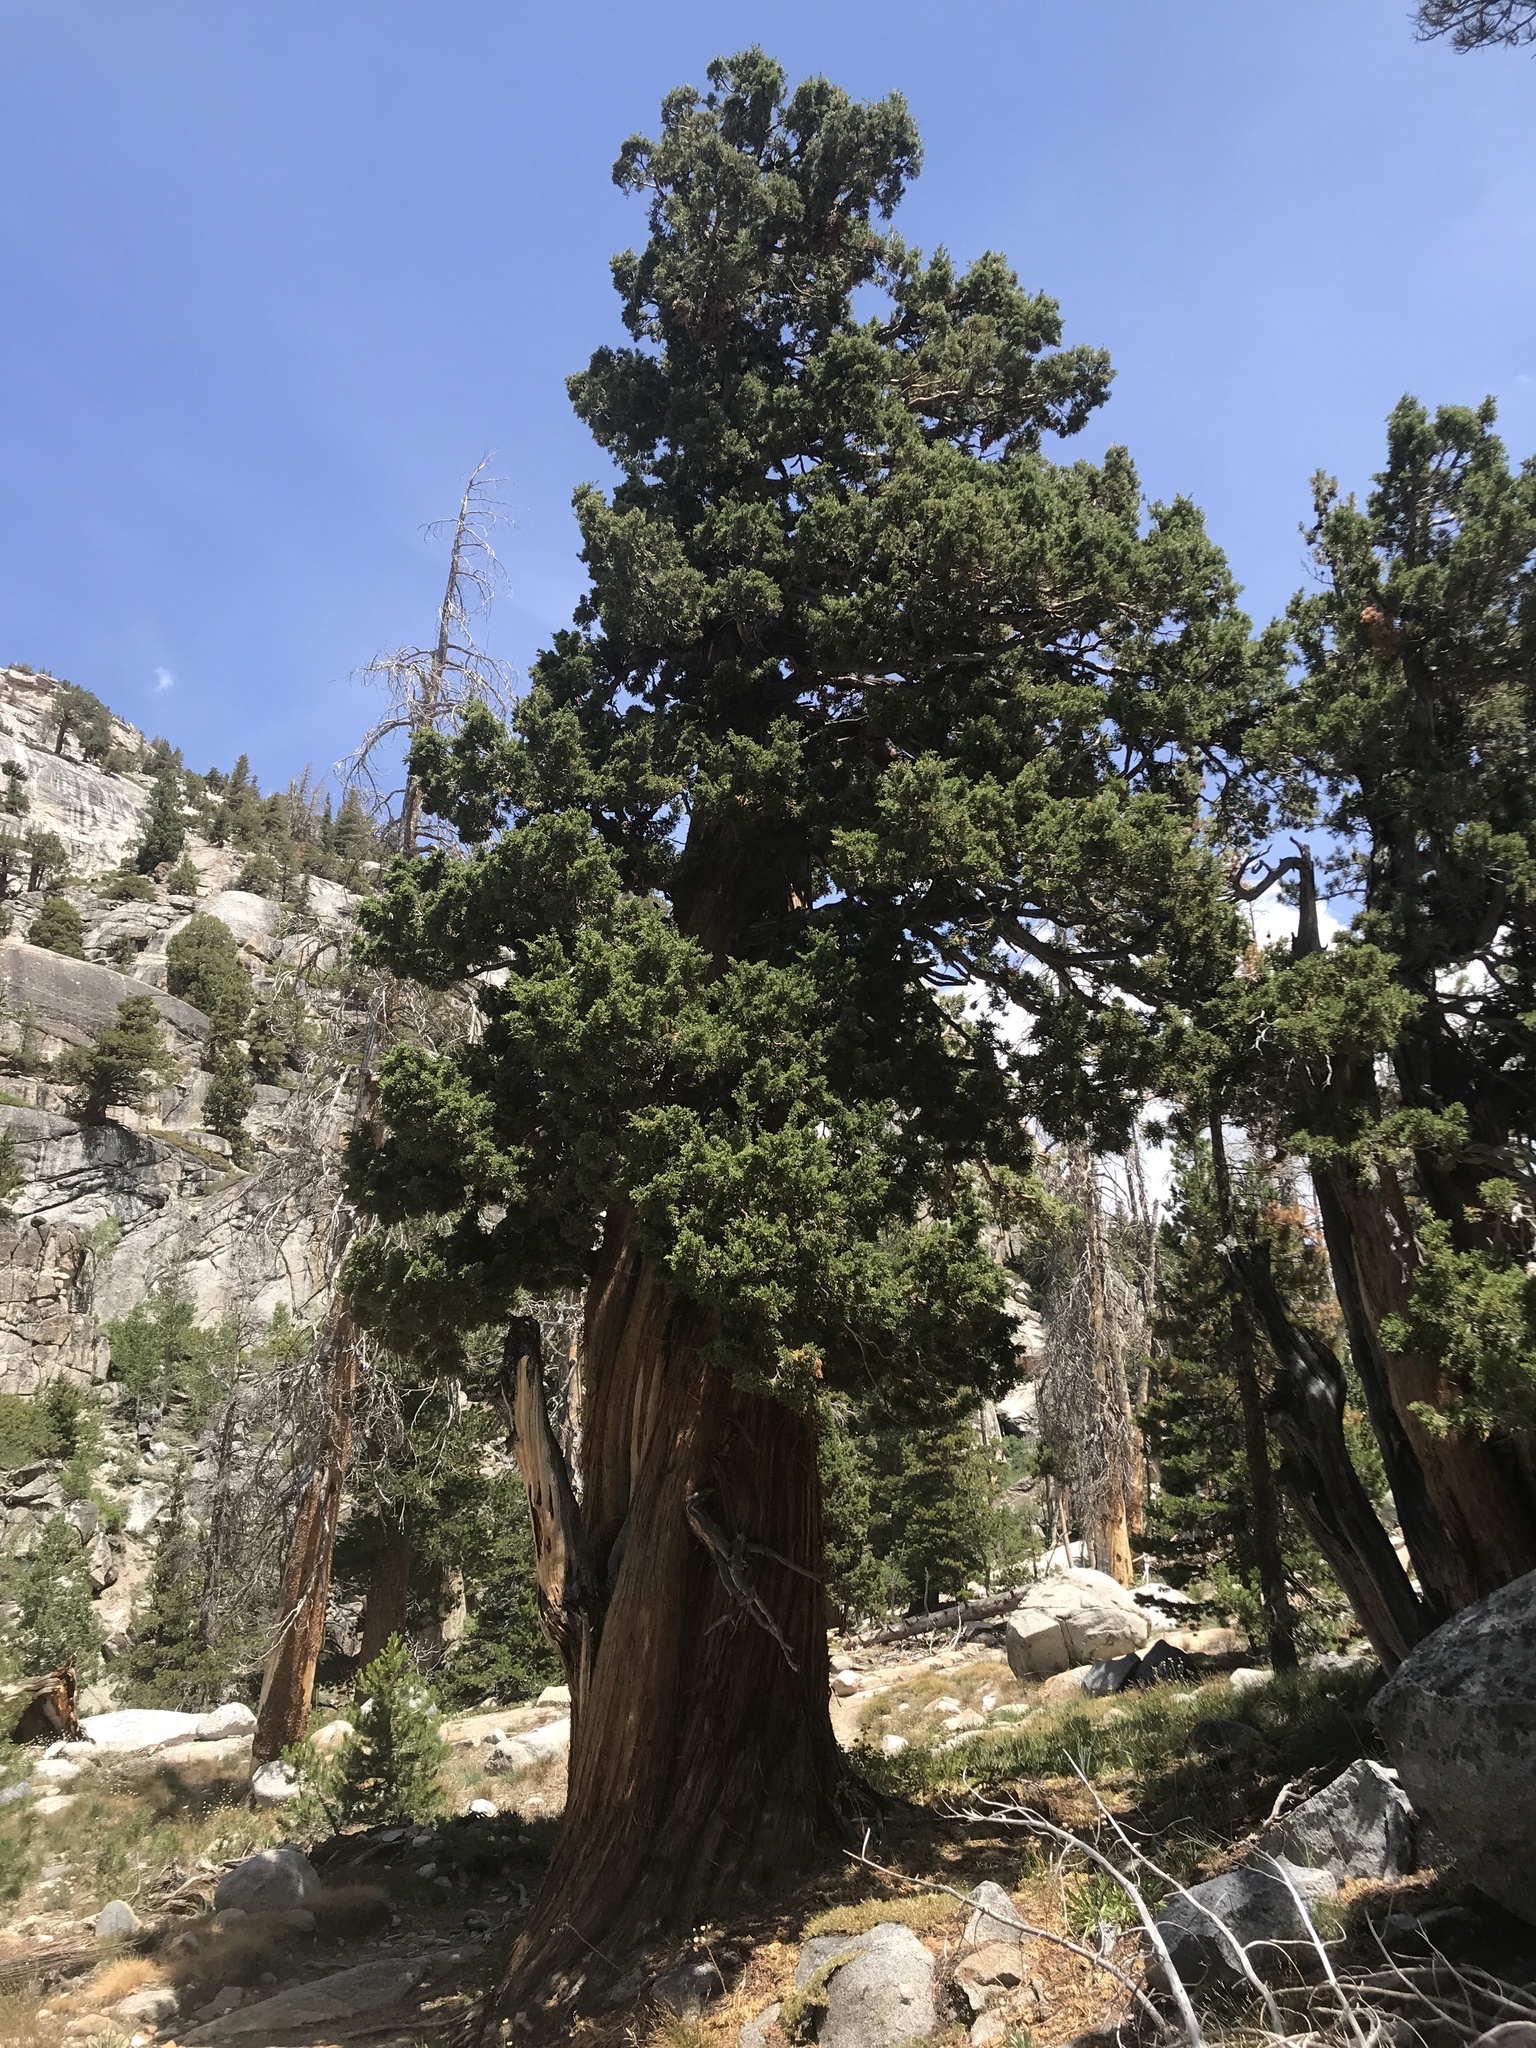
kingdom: Plantae
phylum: Tracheophyta
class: Pinopsida
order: Pinales
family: Cupressaceae
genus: Juniperus
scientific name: Juniperus occidentalis
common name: Western juniper
